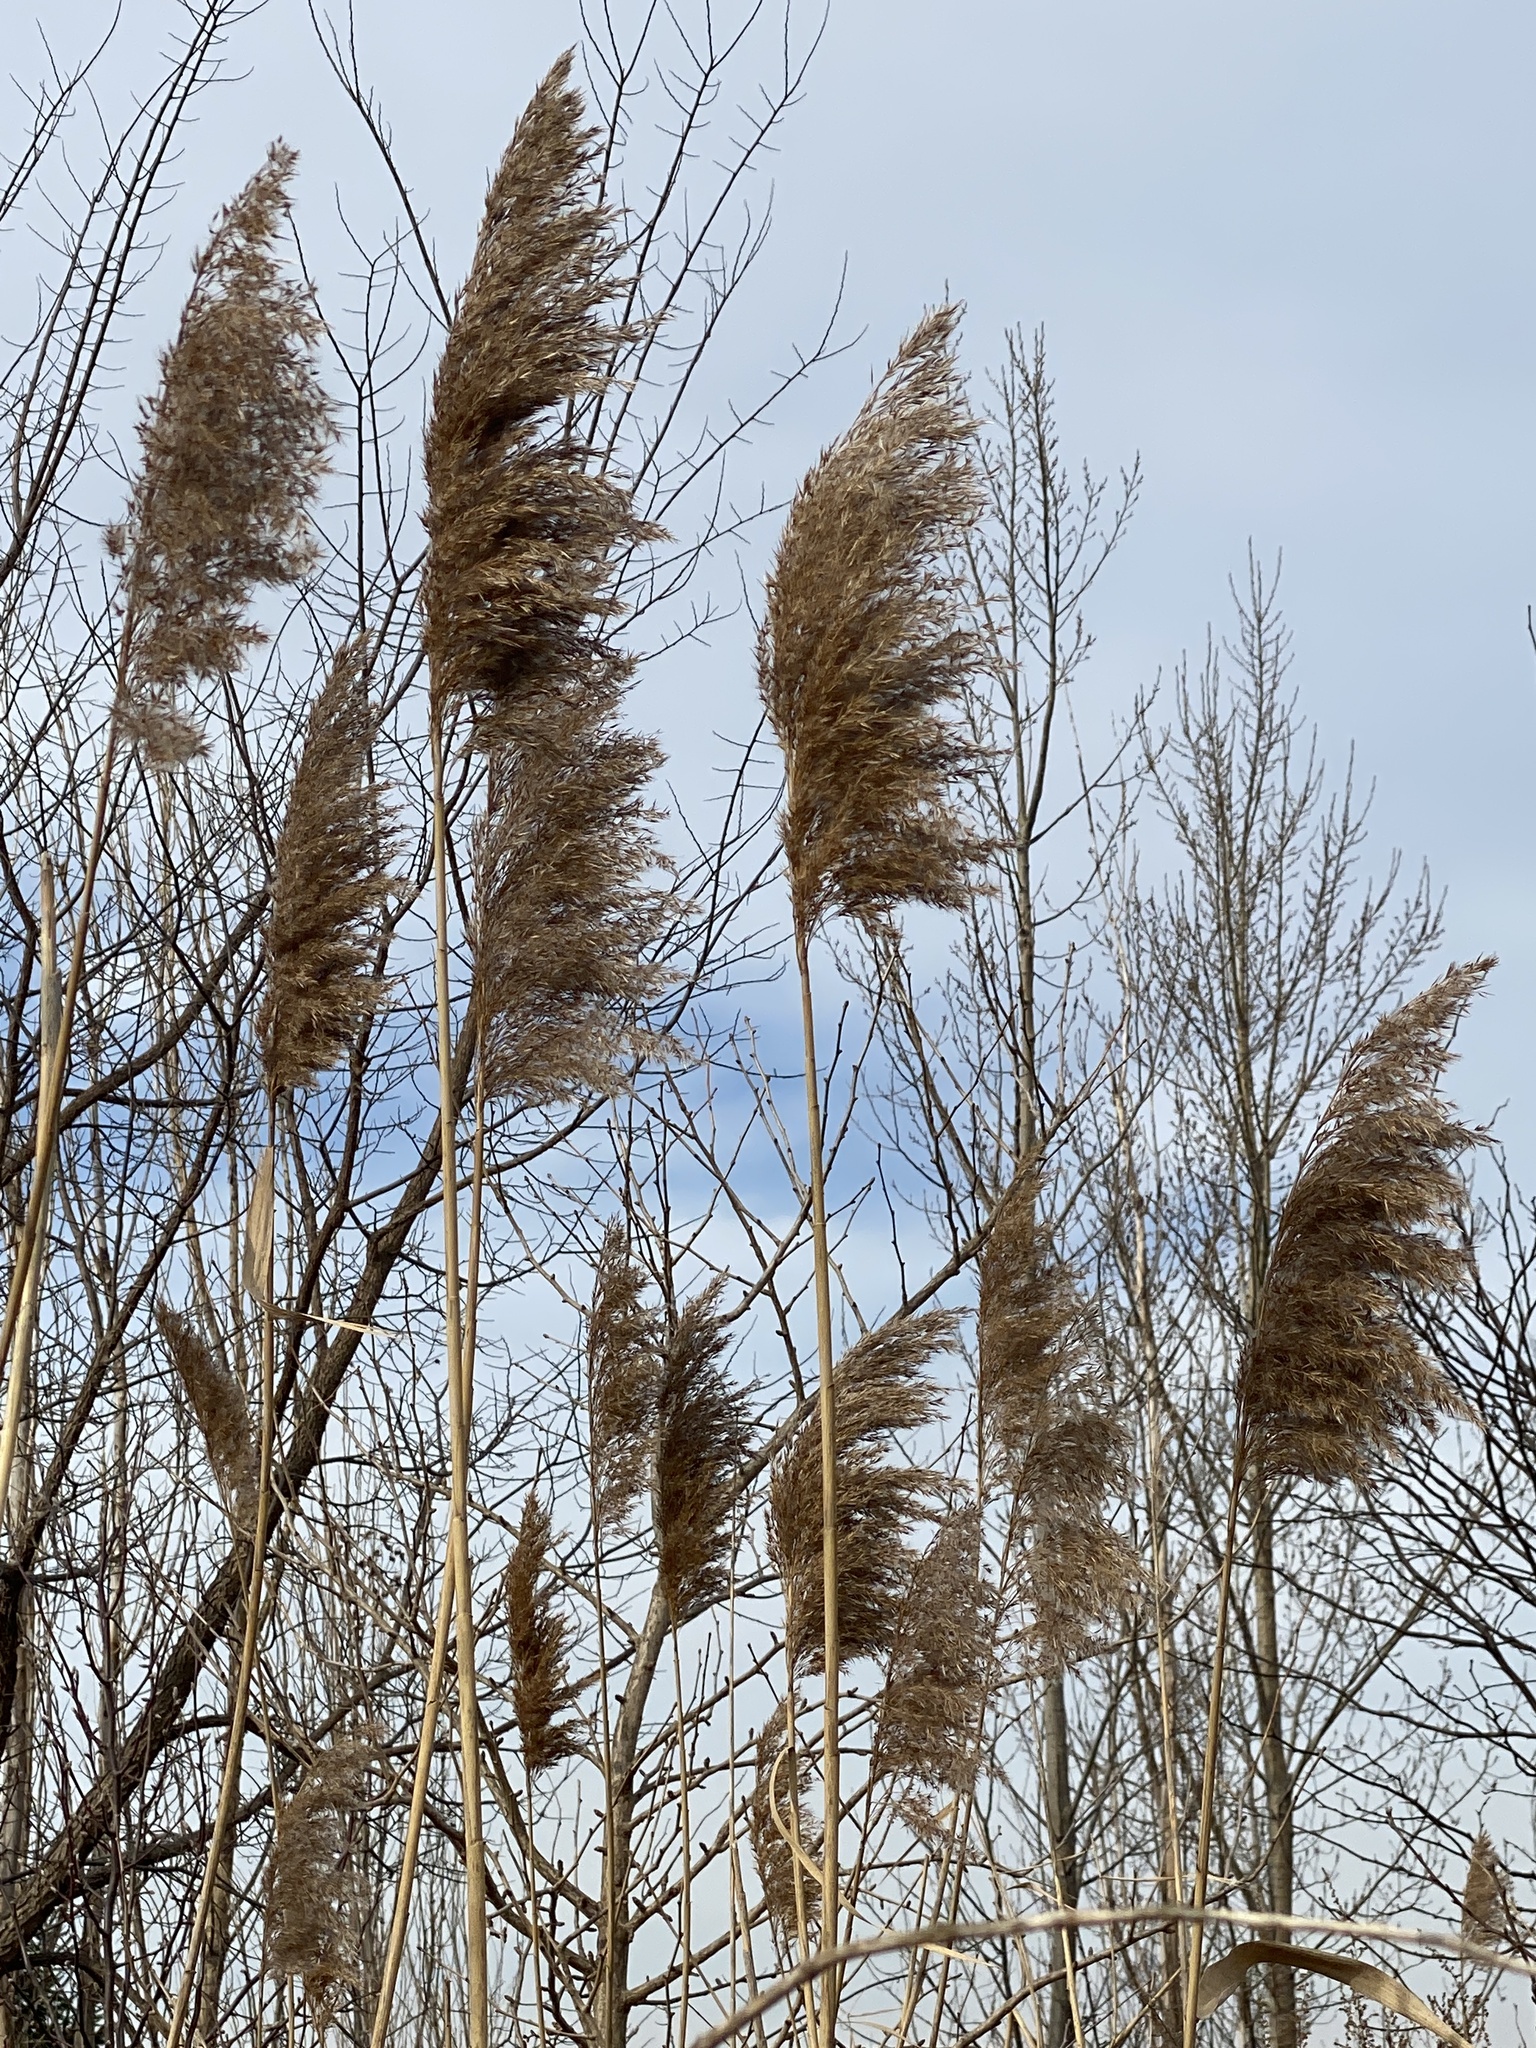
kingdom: Plantae
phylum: Tracheophyta
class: Liliopsida
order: Poales
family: Poaceae
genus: Phragmites
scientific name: Phragmites australis
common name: Common reed
